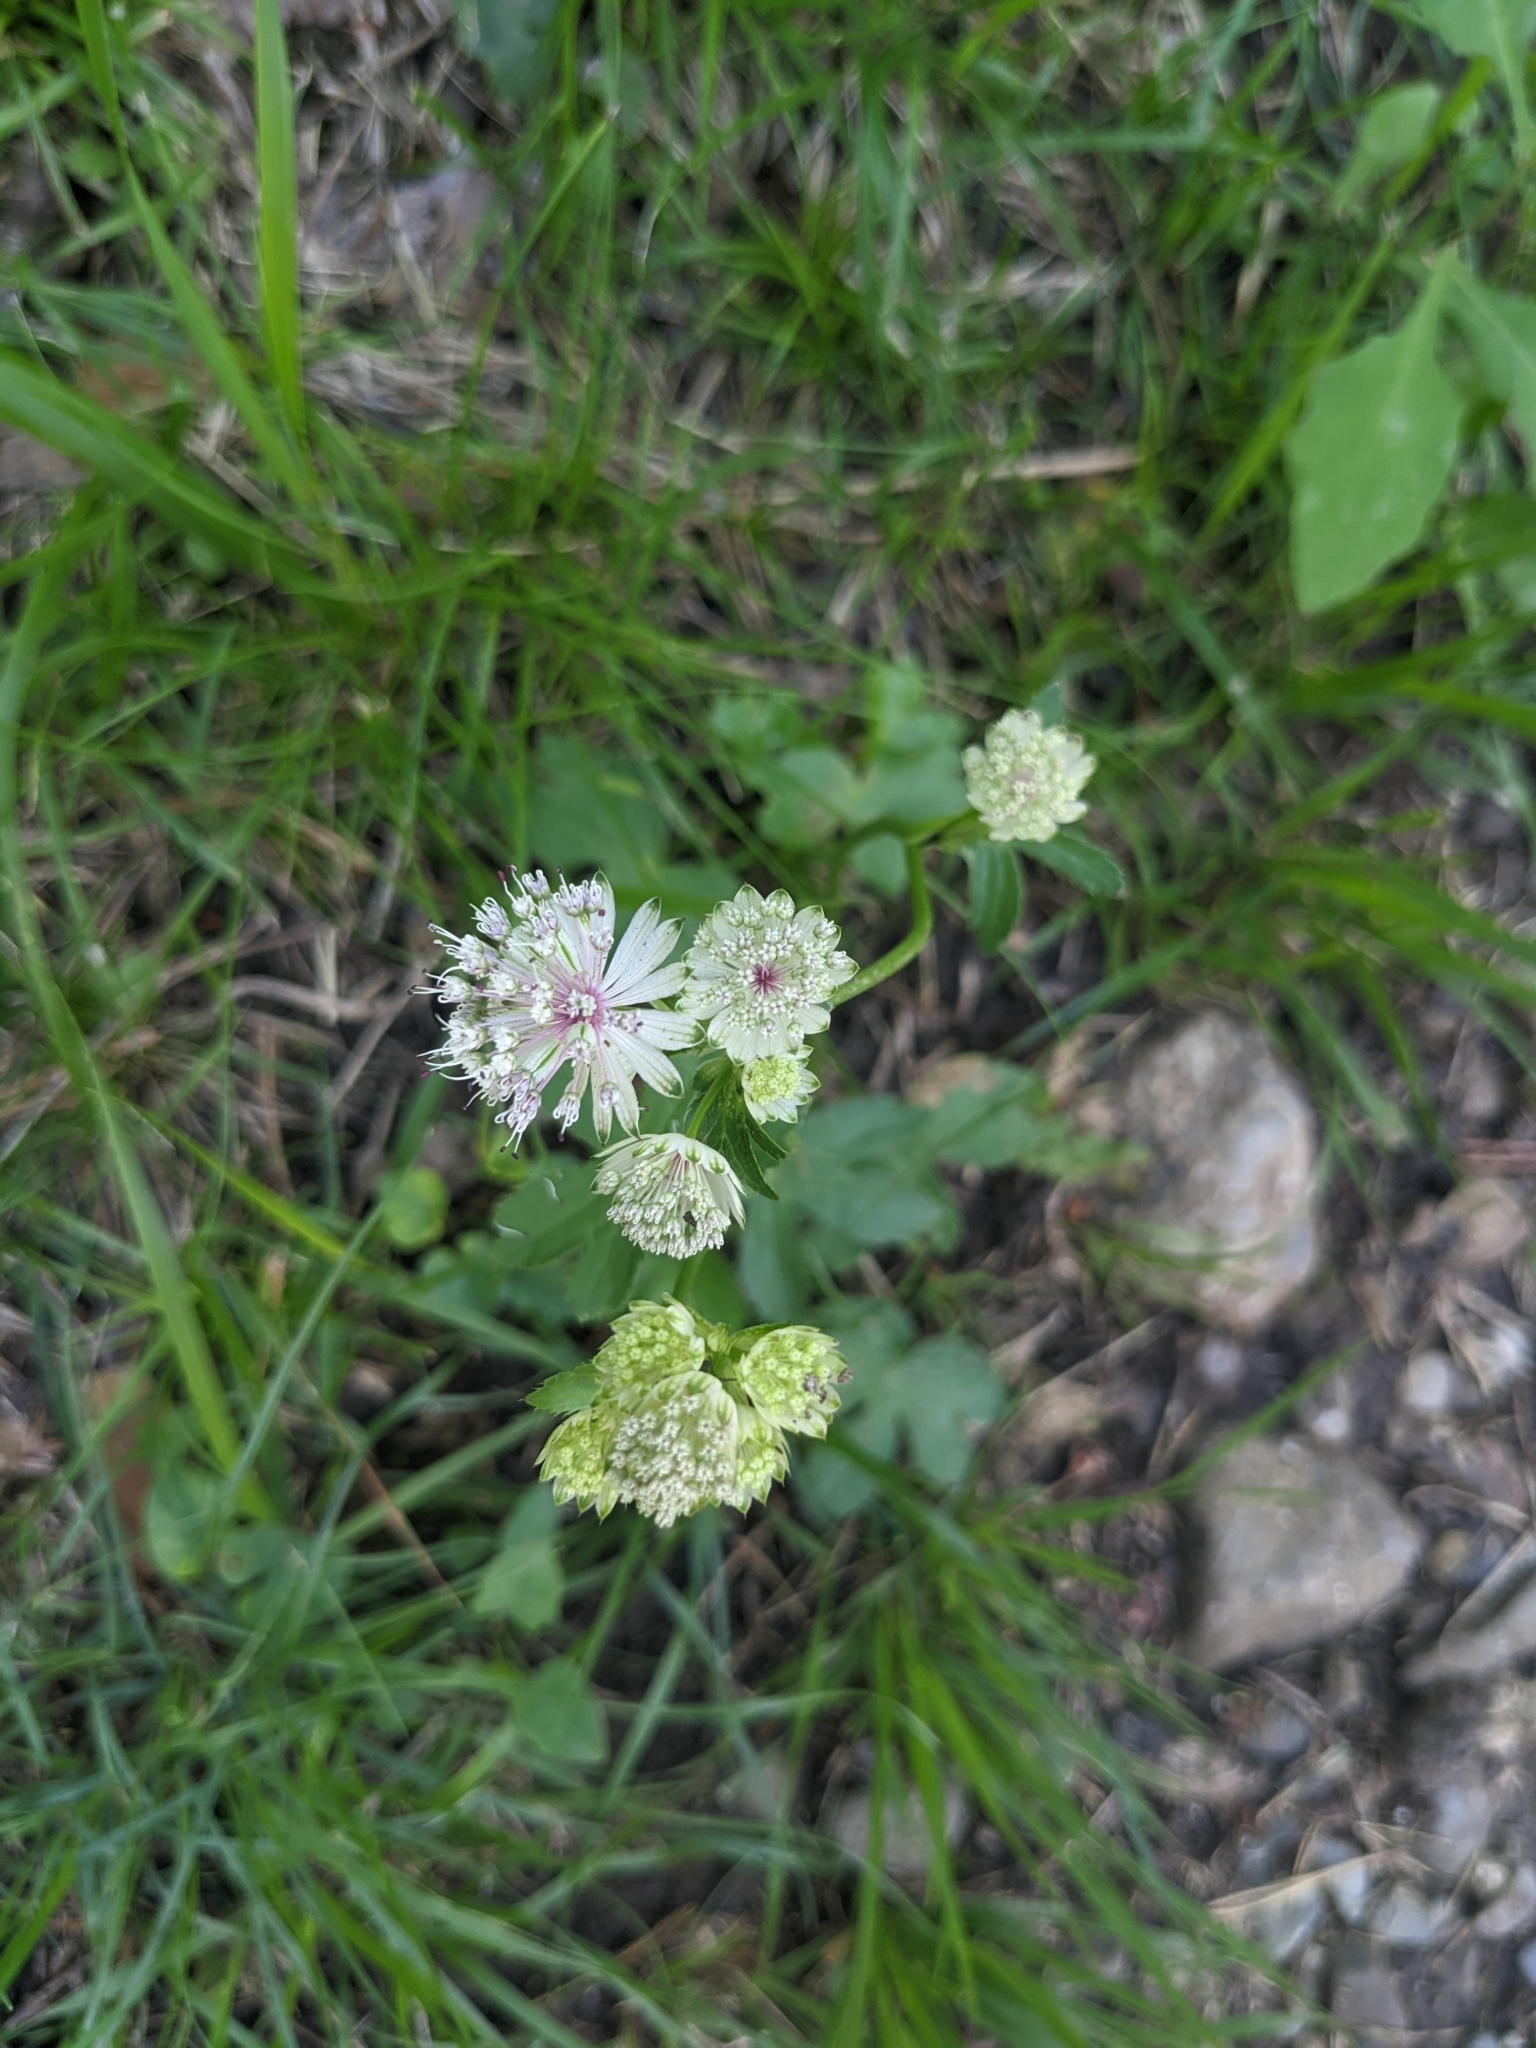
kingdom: Plantae
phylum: Tracheophyta
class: Magnoliopsida
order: Apiales
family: Apiaceae
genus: Astrantia
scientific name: Astrantia major
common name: Greater masterwort
